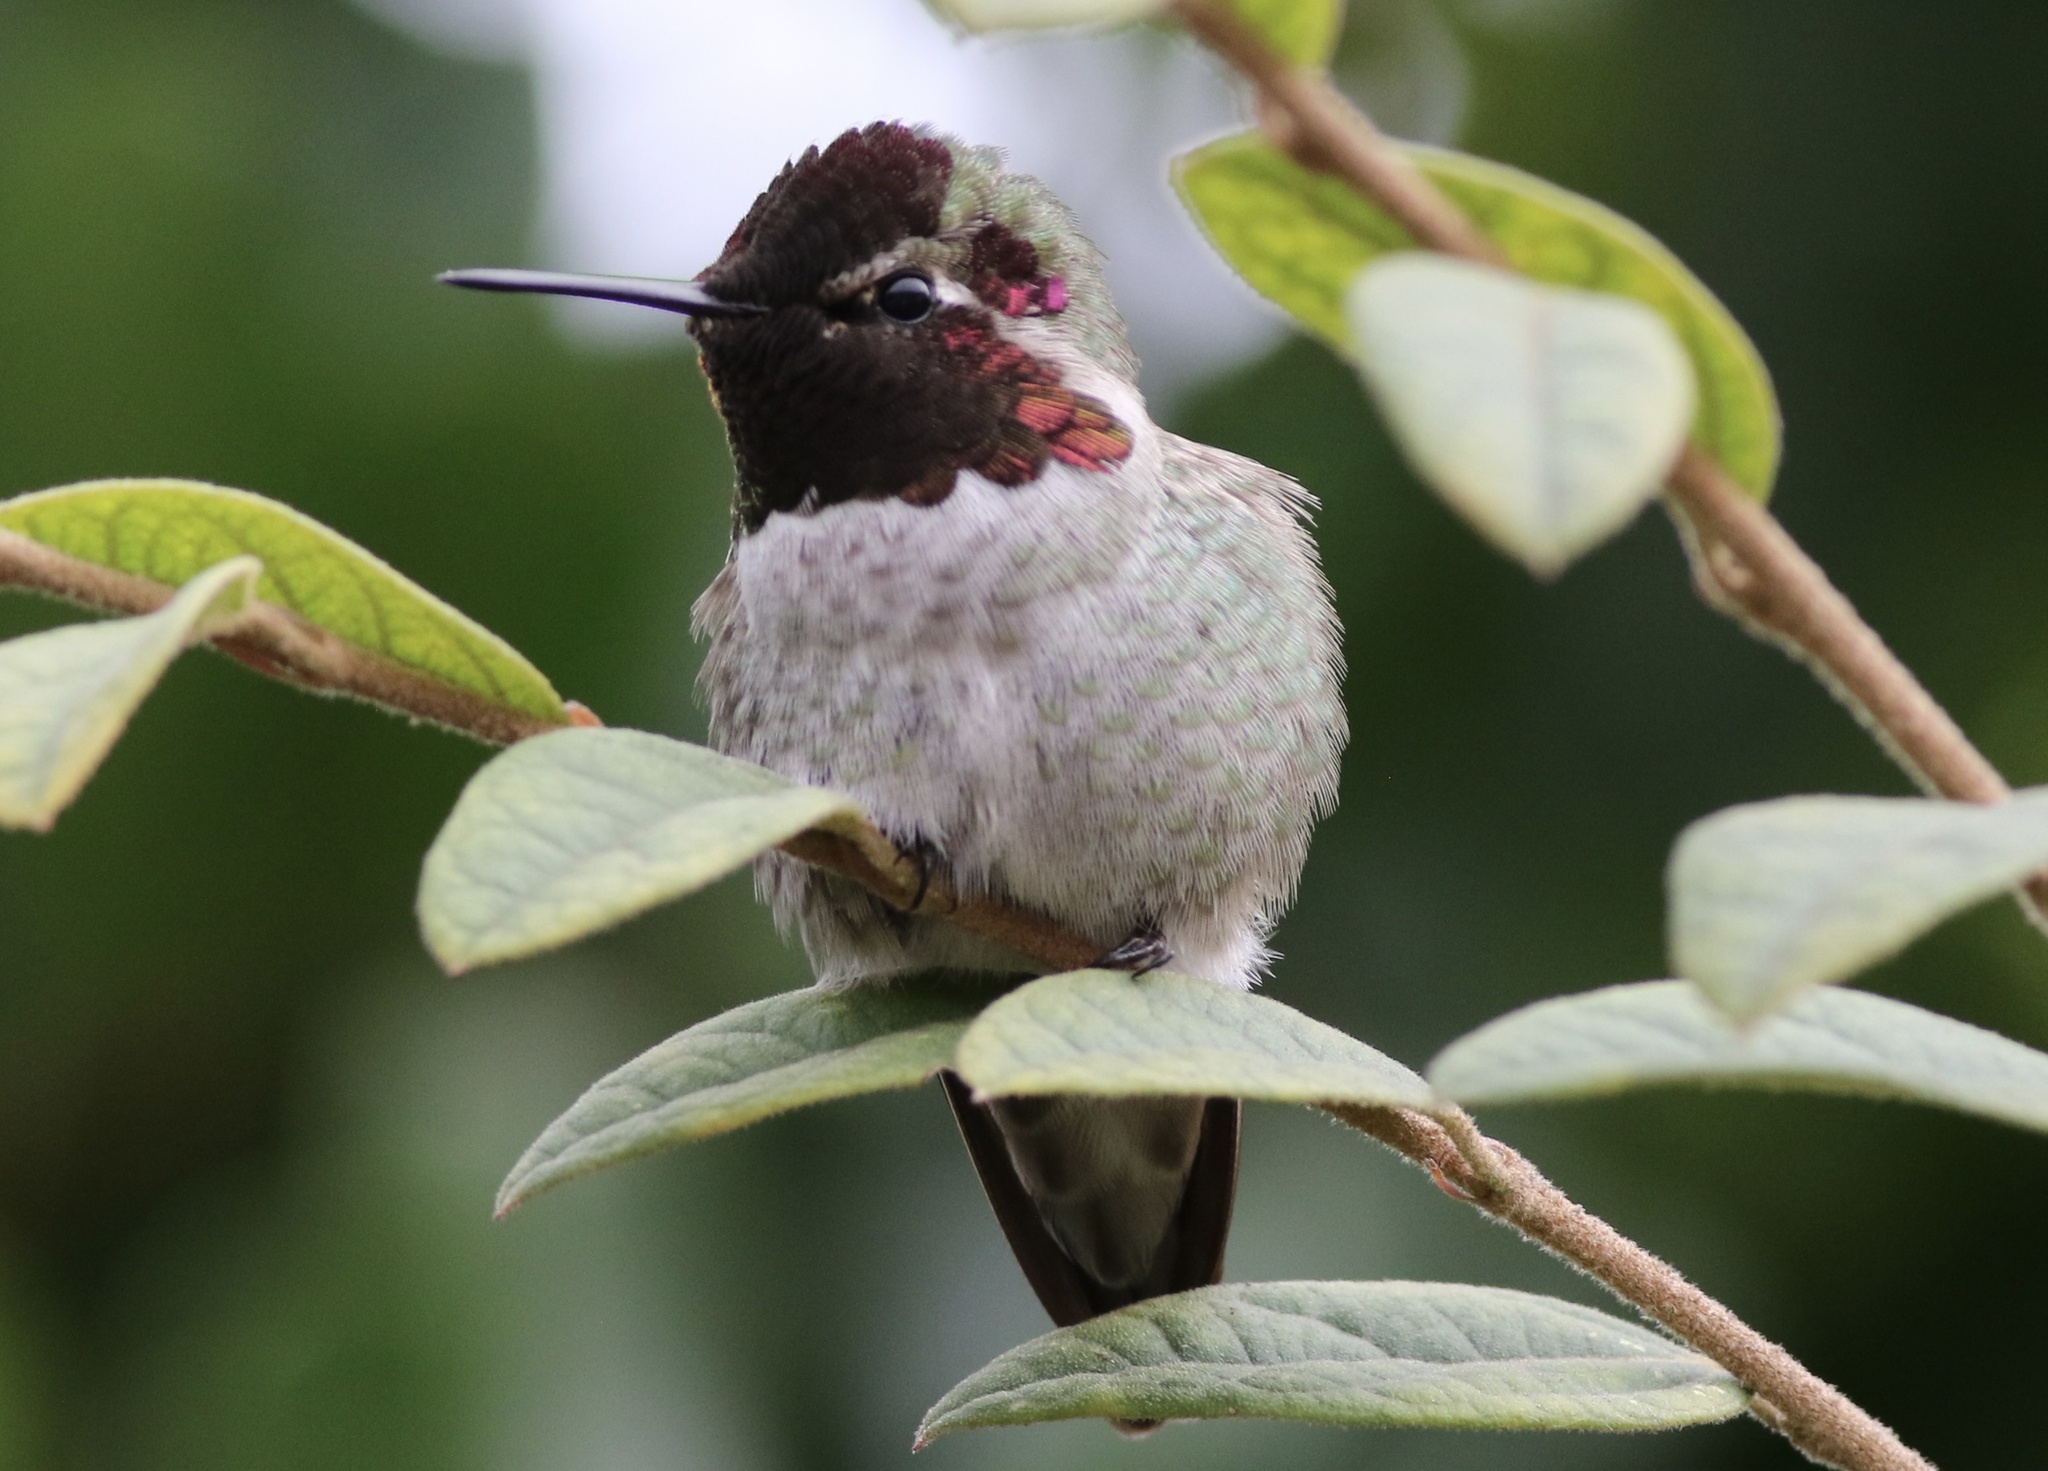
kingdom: Animalia
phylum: Chordata
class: Aves
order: Apodiformes
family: Trochilidae
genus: Calypte
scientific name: Calypte anna
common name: Anna's hummingbird
